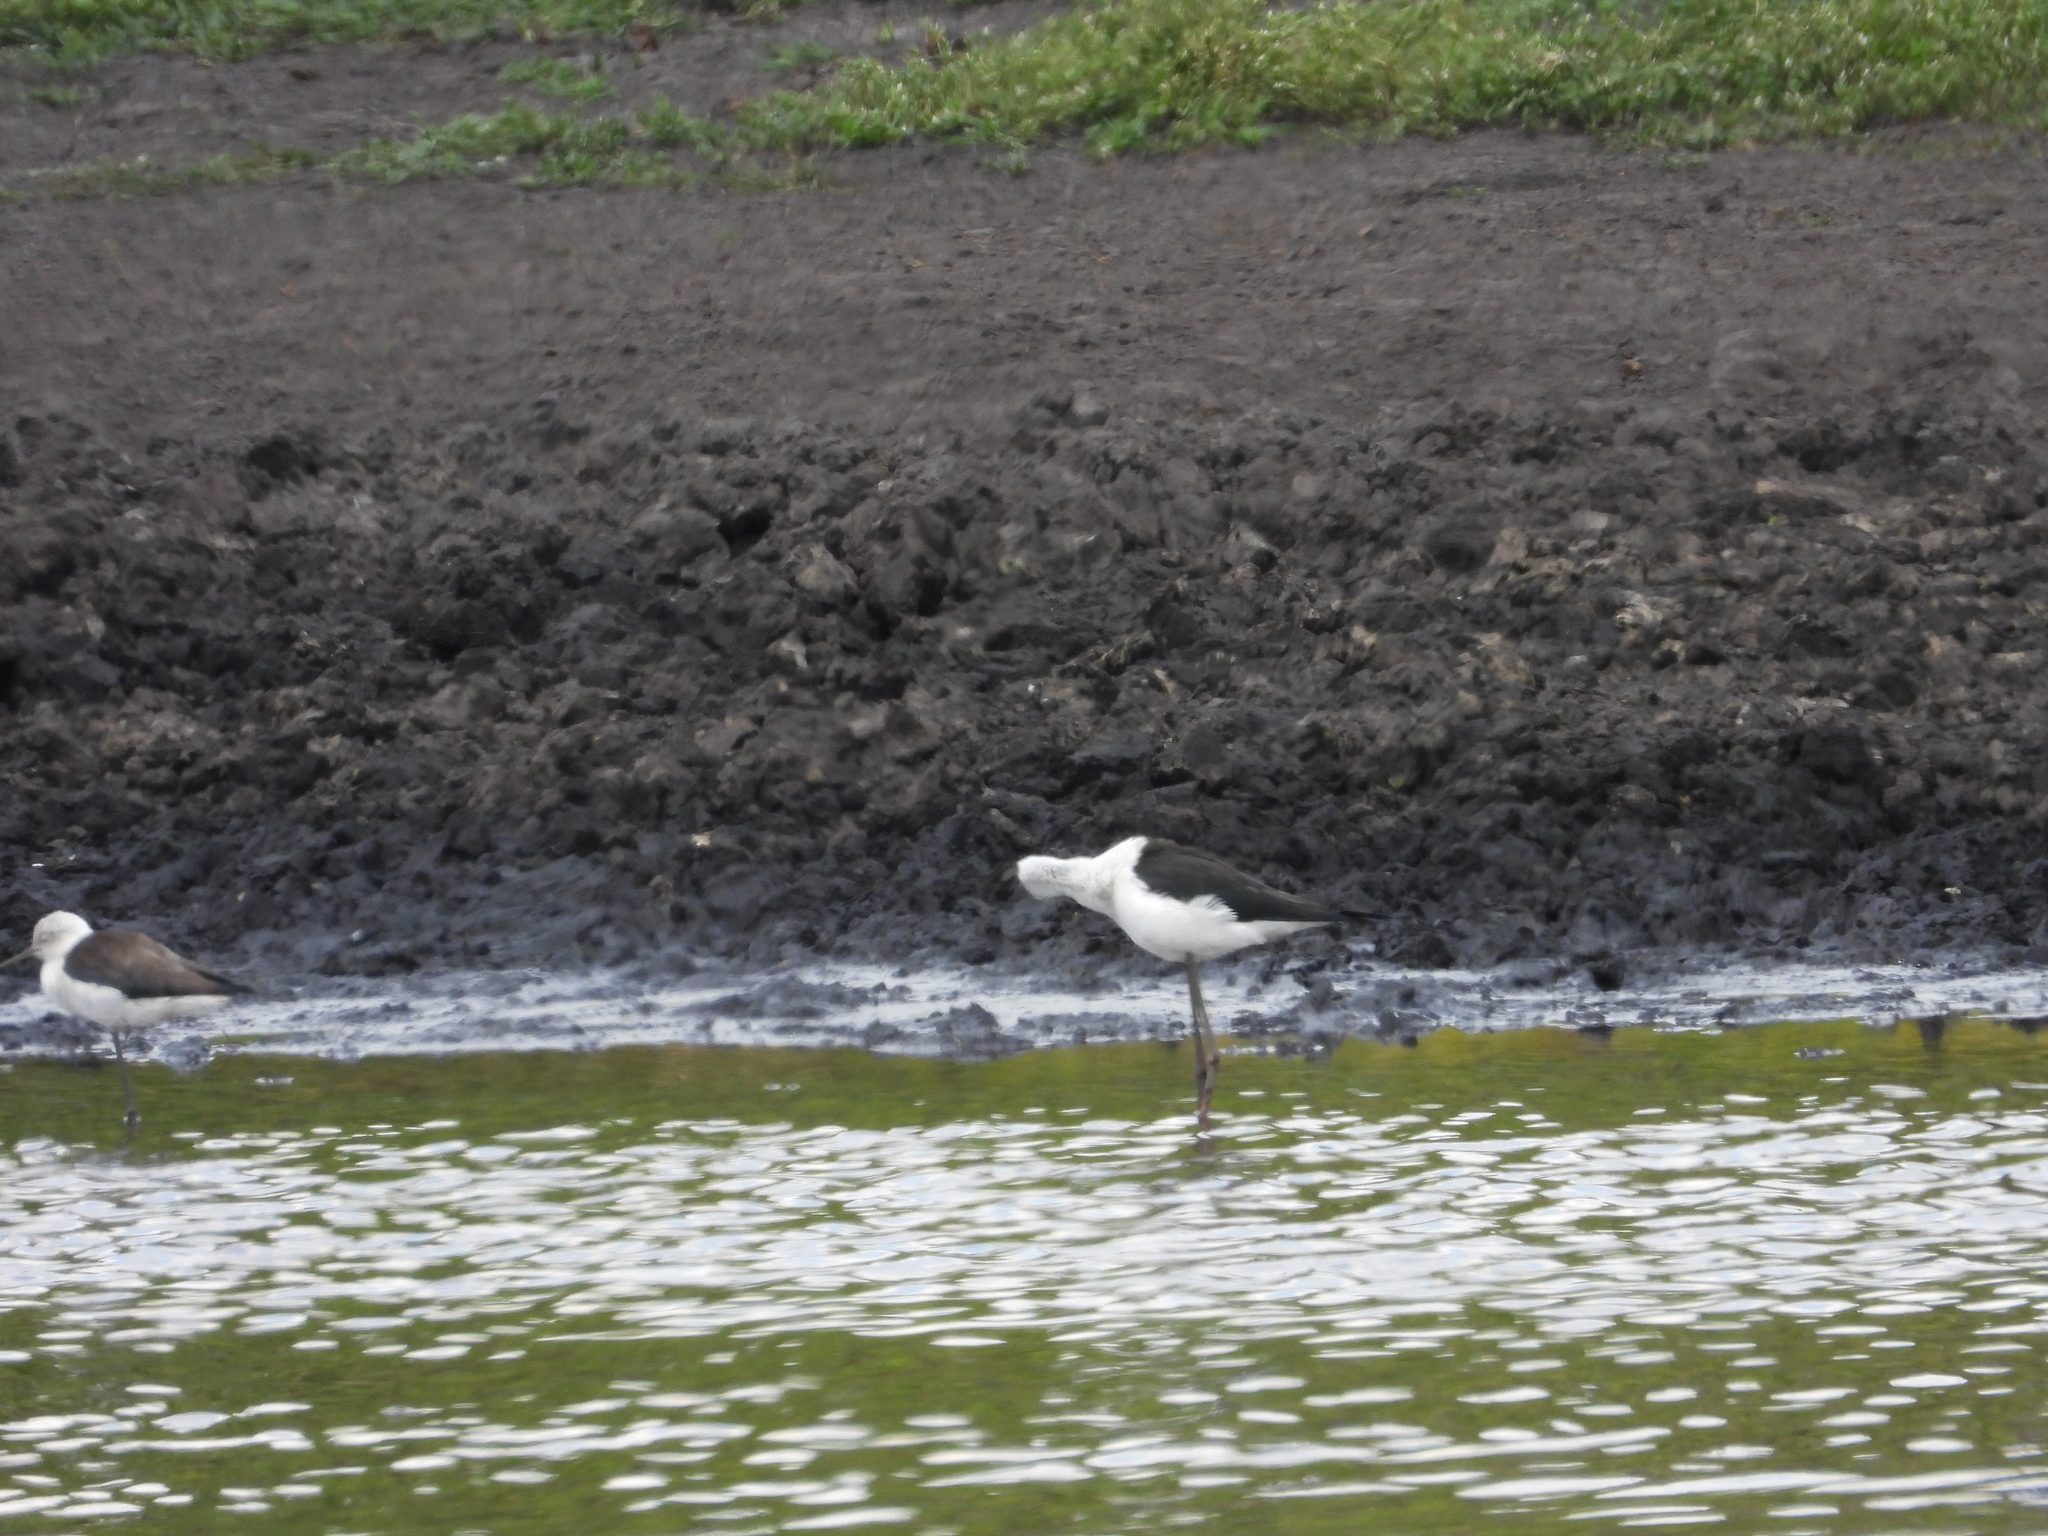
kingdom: Animalia
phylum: Chordata
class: Aves
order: Charadriiformes
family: Recurvirostridae
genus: Himantopus
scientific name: Himantopus himantopus
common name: Black-winged stilt
